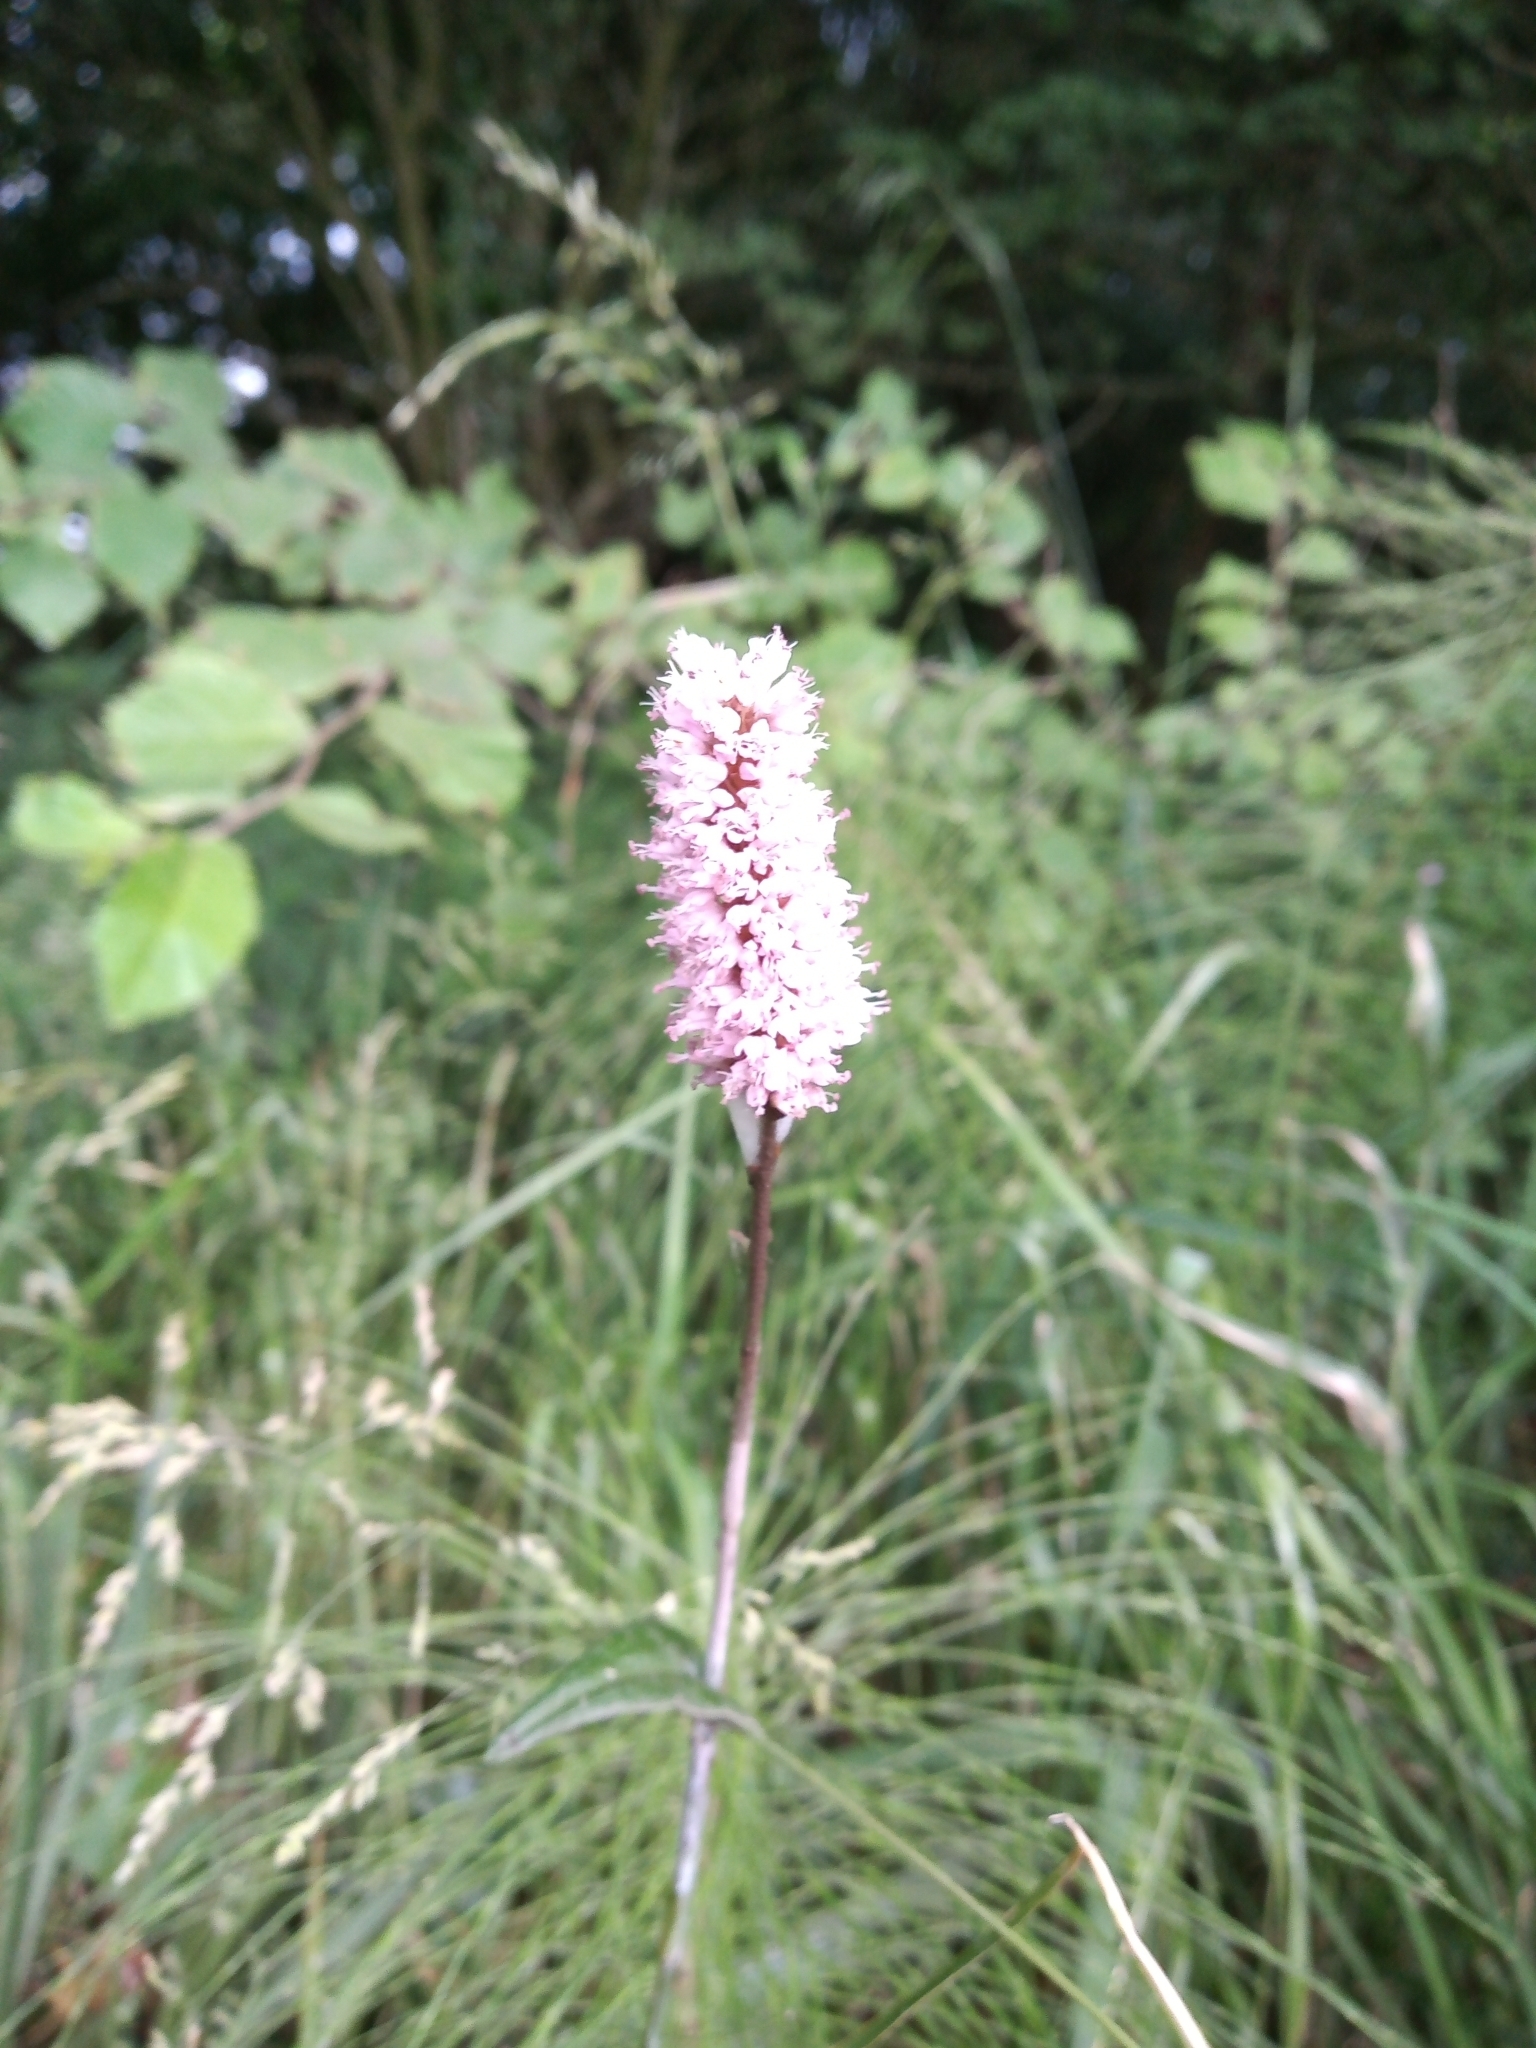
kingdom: Plantae
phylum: Tracheophyta
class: Magnoliopsida
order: Caryophyllales
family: Polygonaceae
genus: Bistorta
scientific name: Bistorta officinalis
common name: Common bistort
